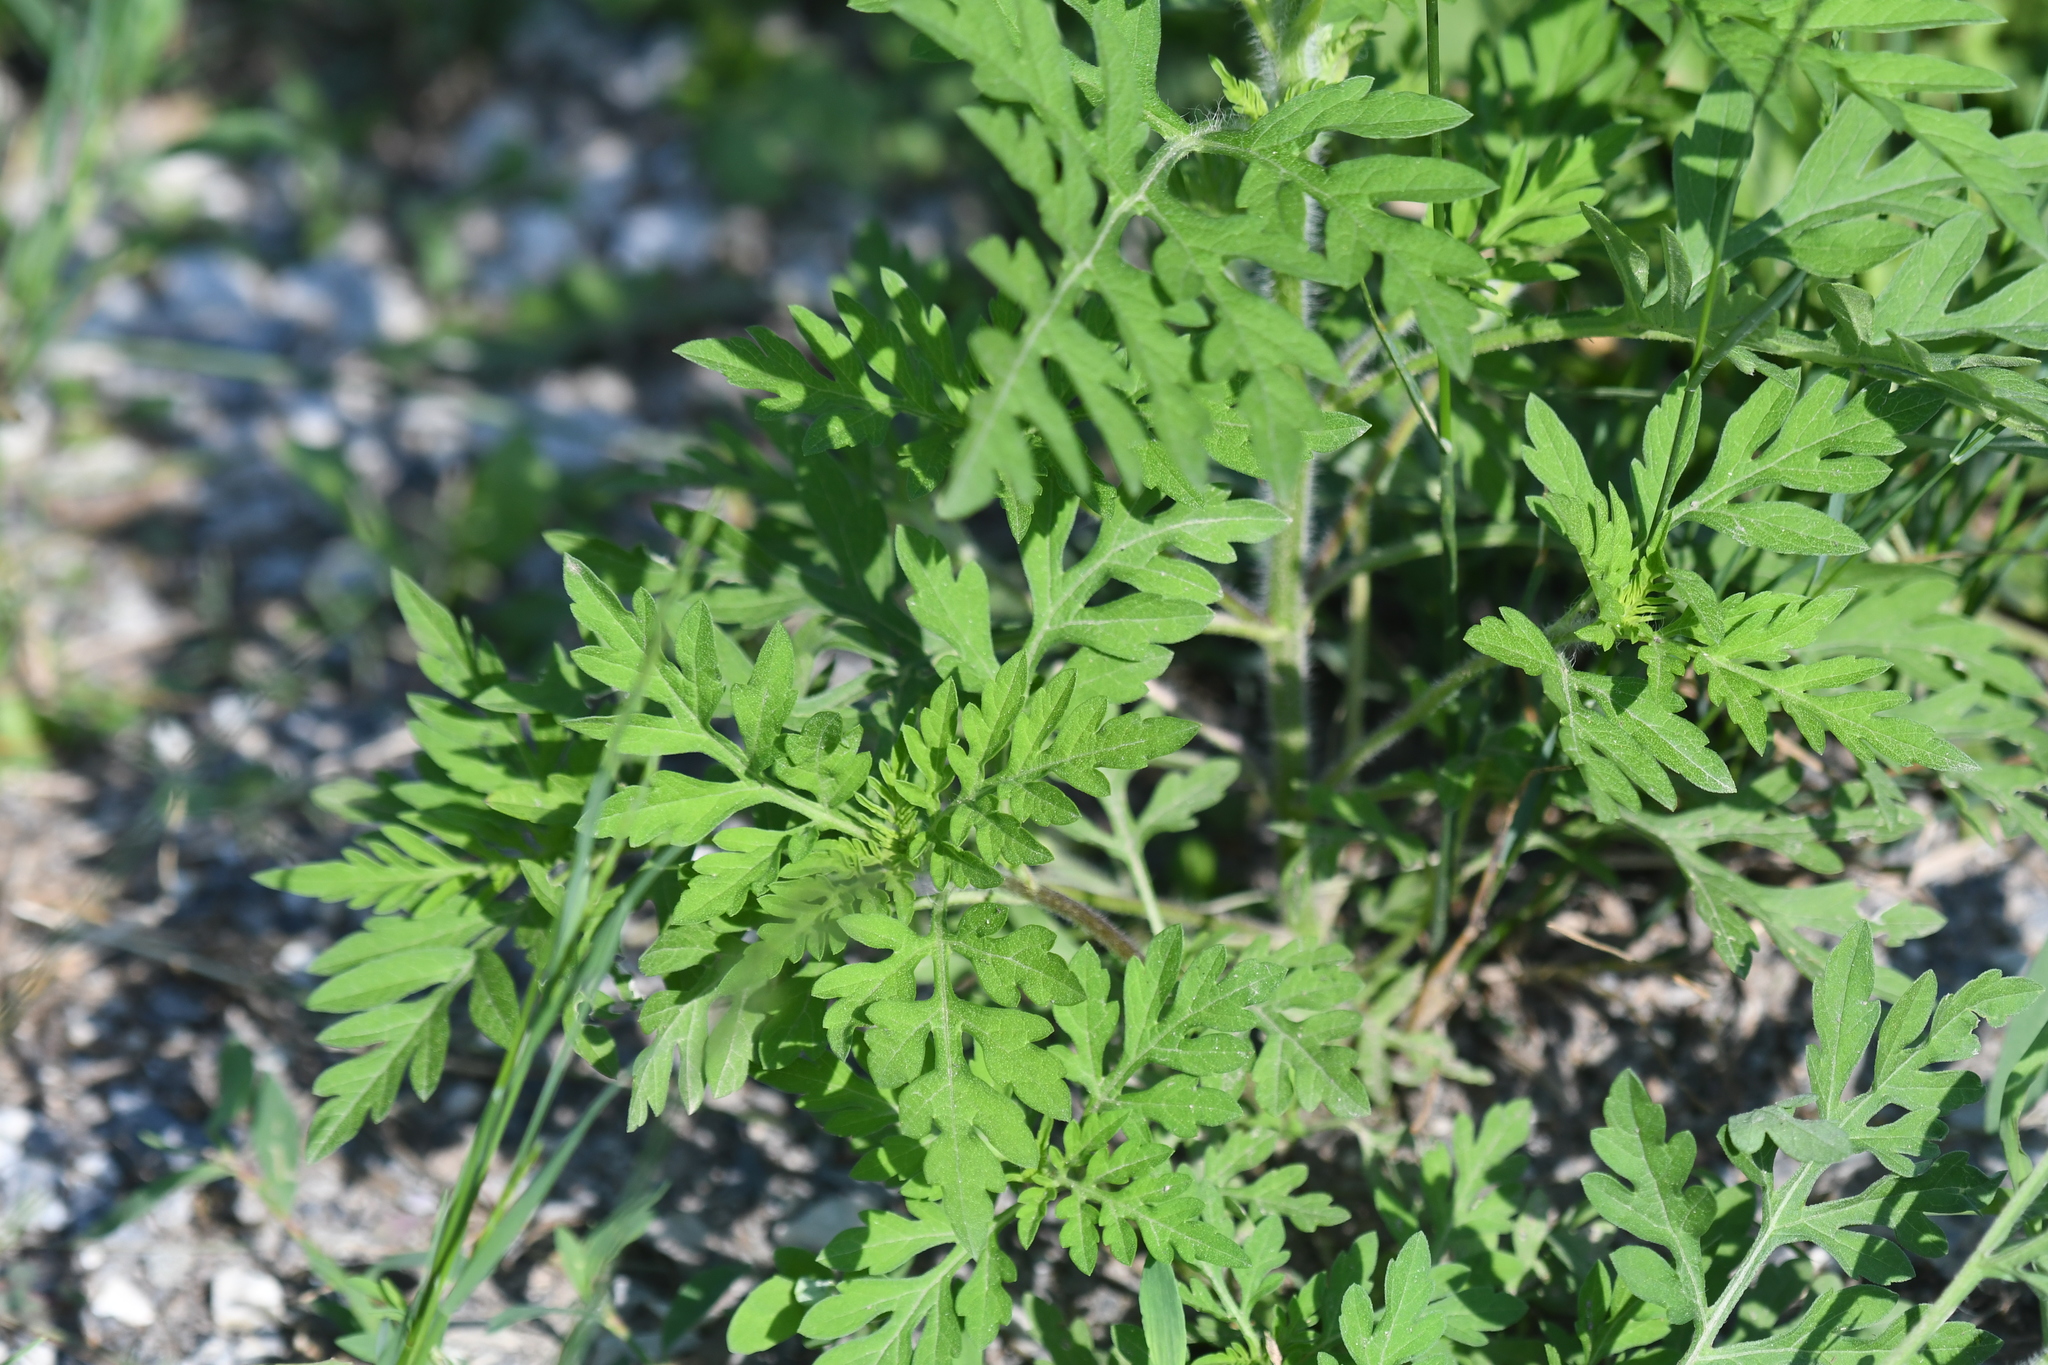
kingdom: Plantae
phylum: Tracheophyta
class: Magnoliopsida
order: Asterales
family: Asteraceae
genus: Ambrosia
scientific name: Ambrosia artemisiifolia
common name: Annual ragweed
